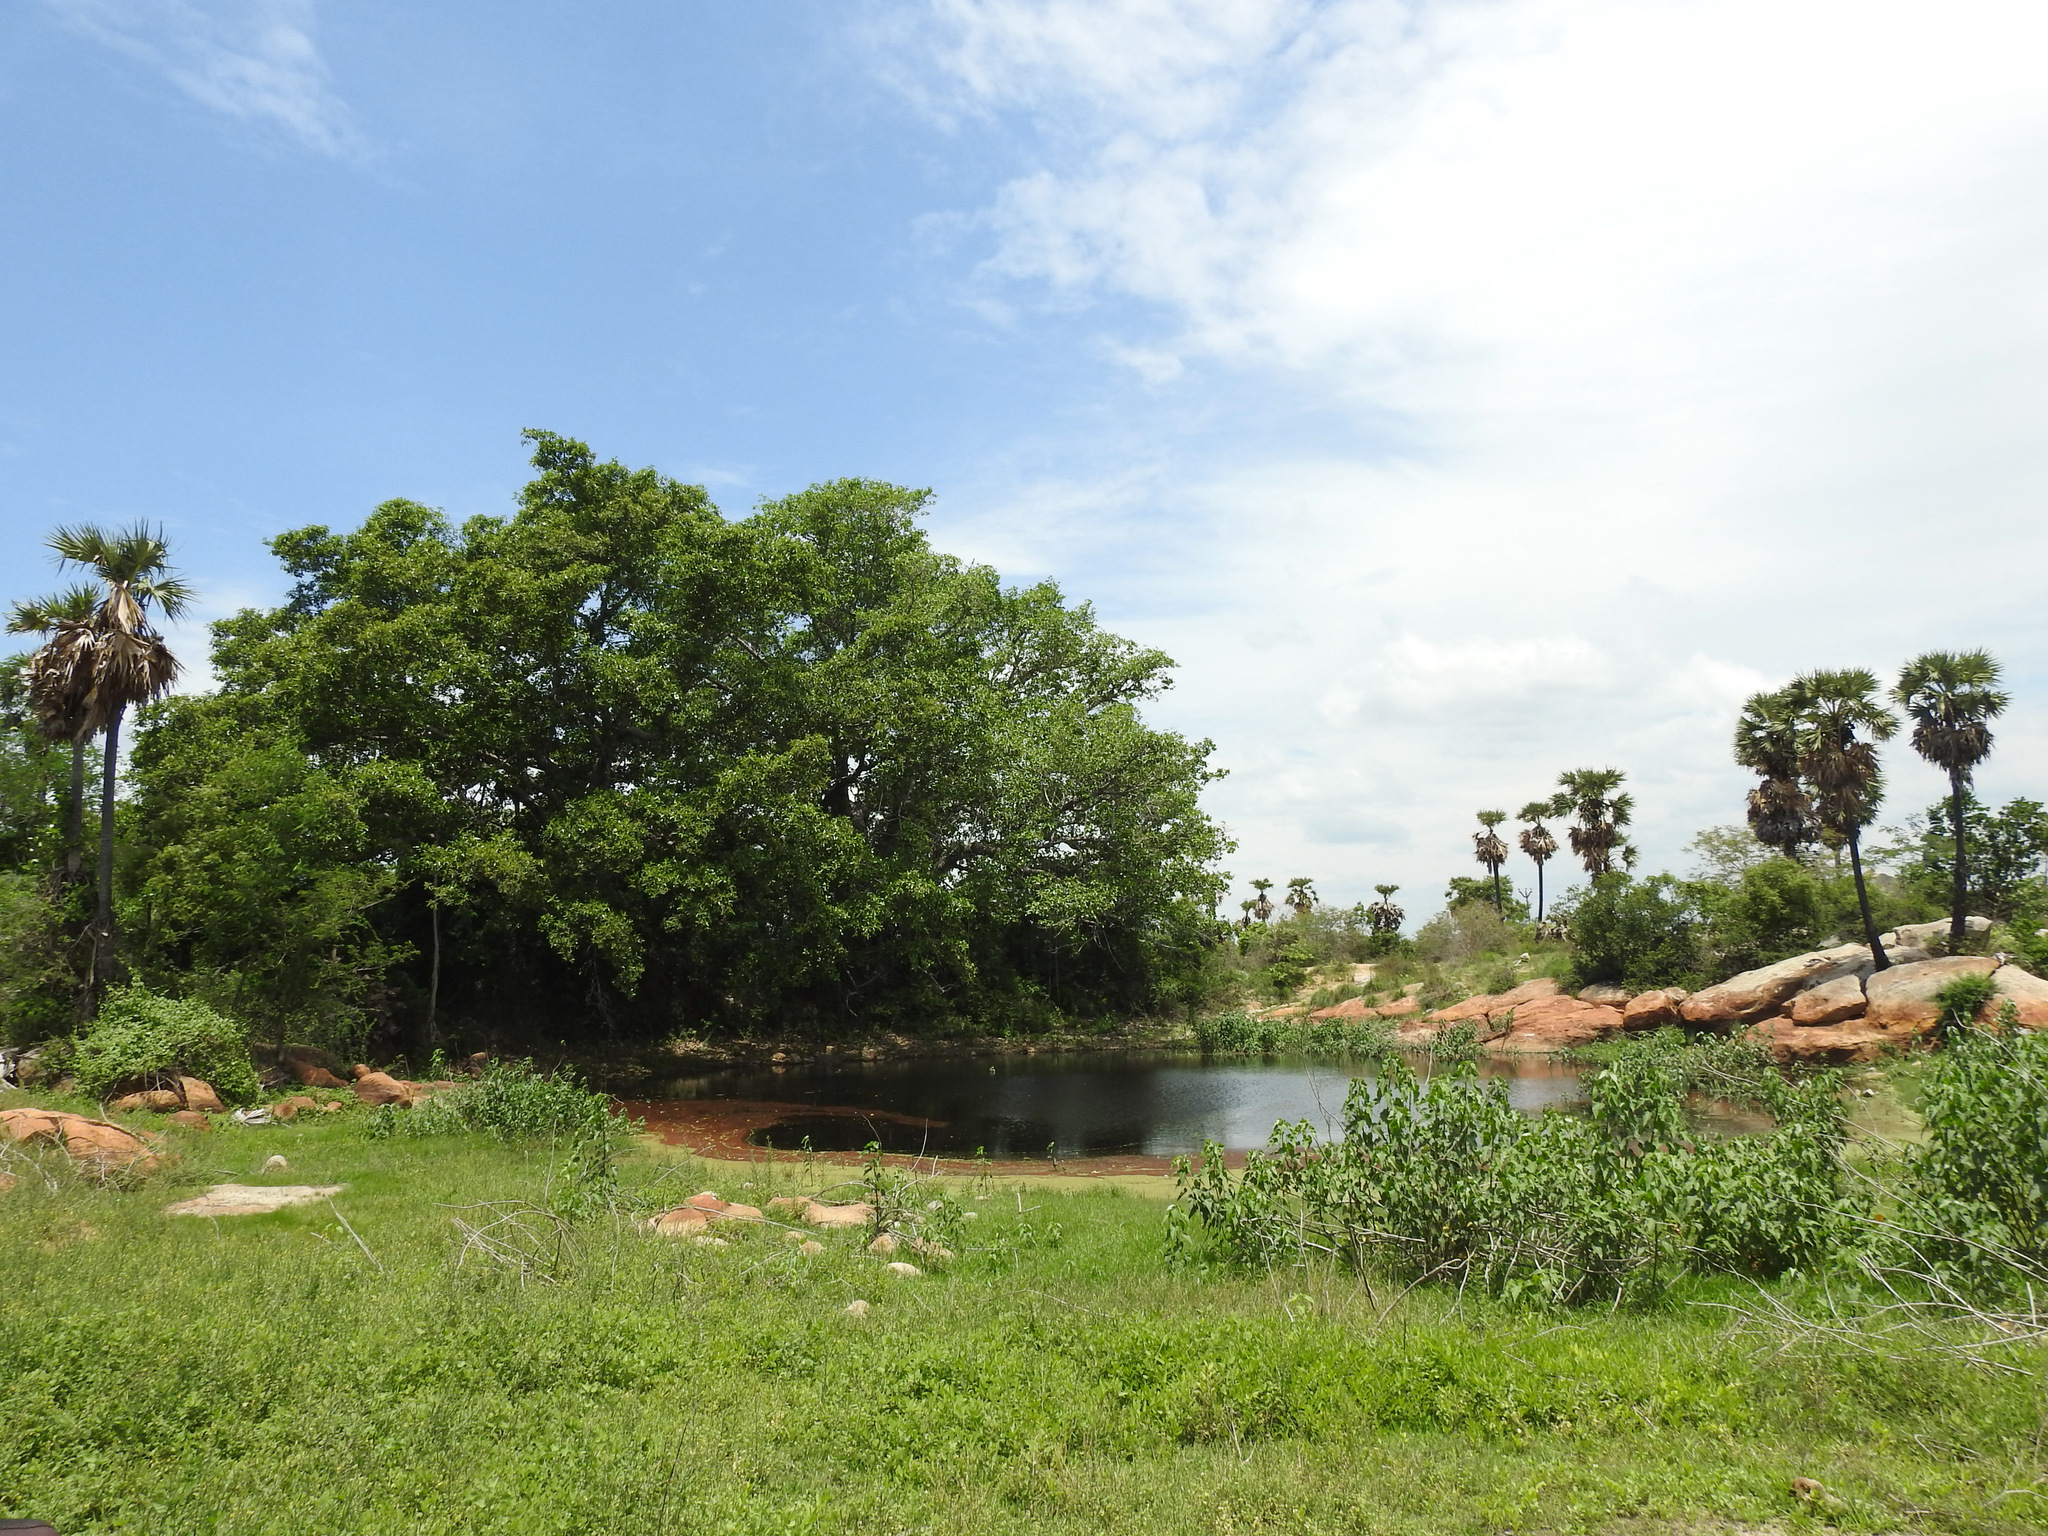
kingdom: Plantae
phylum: Tracheophyta
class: Liliopsida
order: Arecales
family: Arecaceae
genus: Borassus
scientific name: Borassus flabellifer
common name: Palmyra palm
